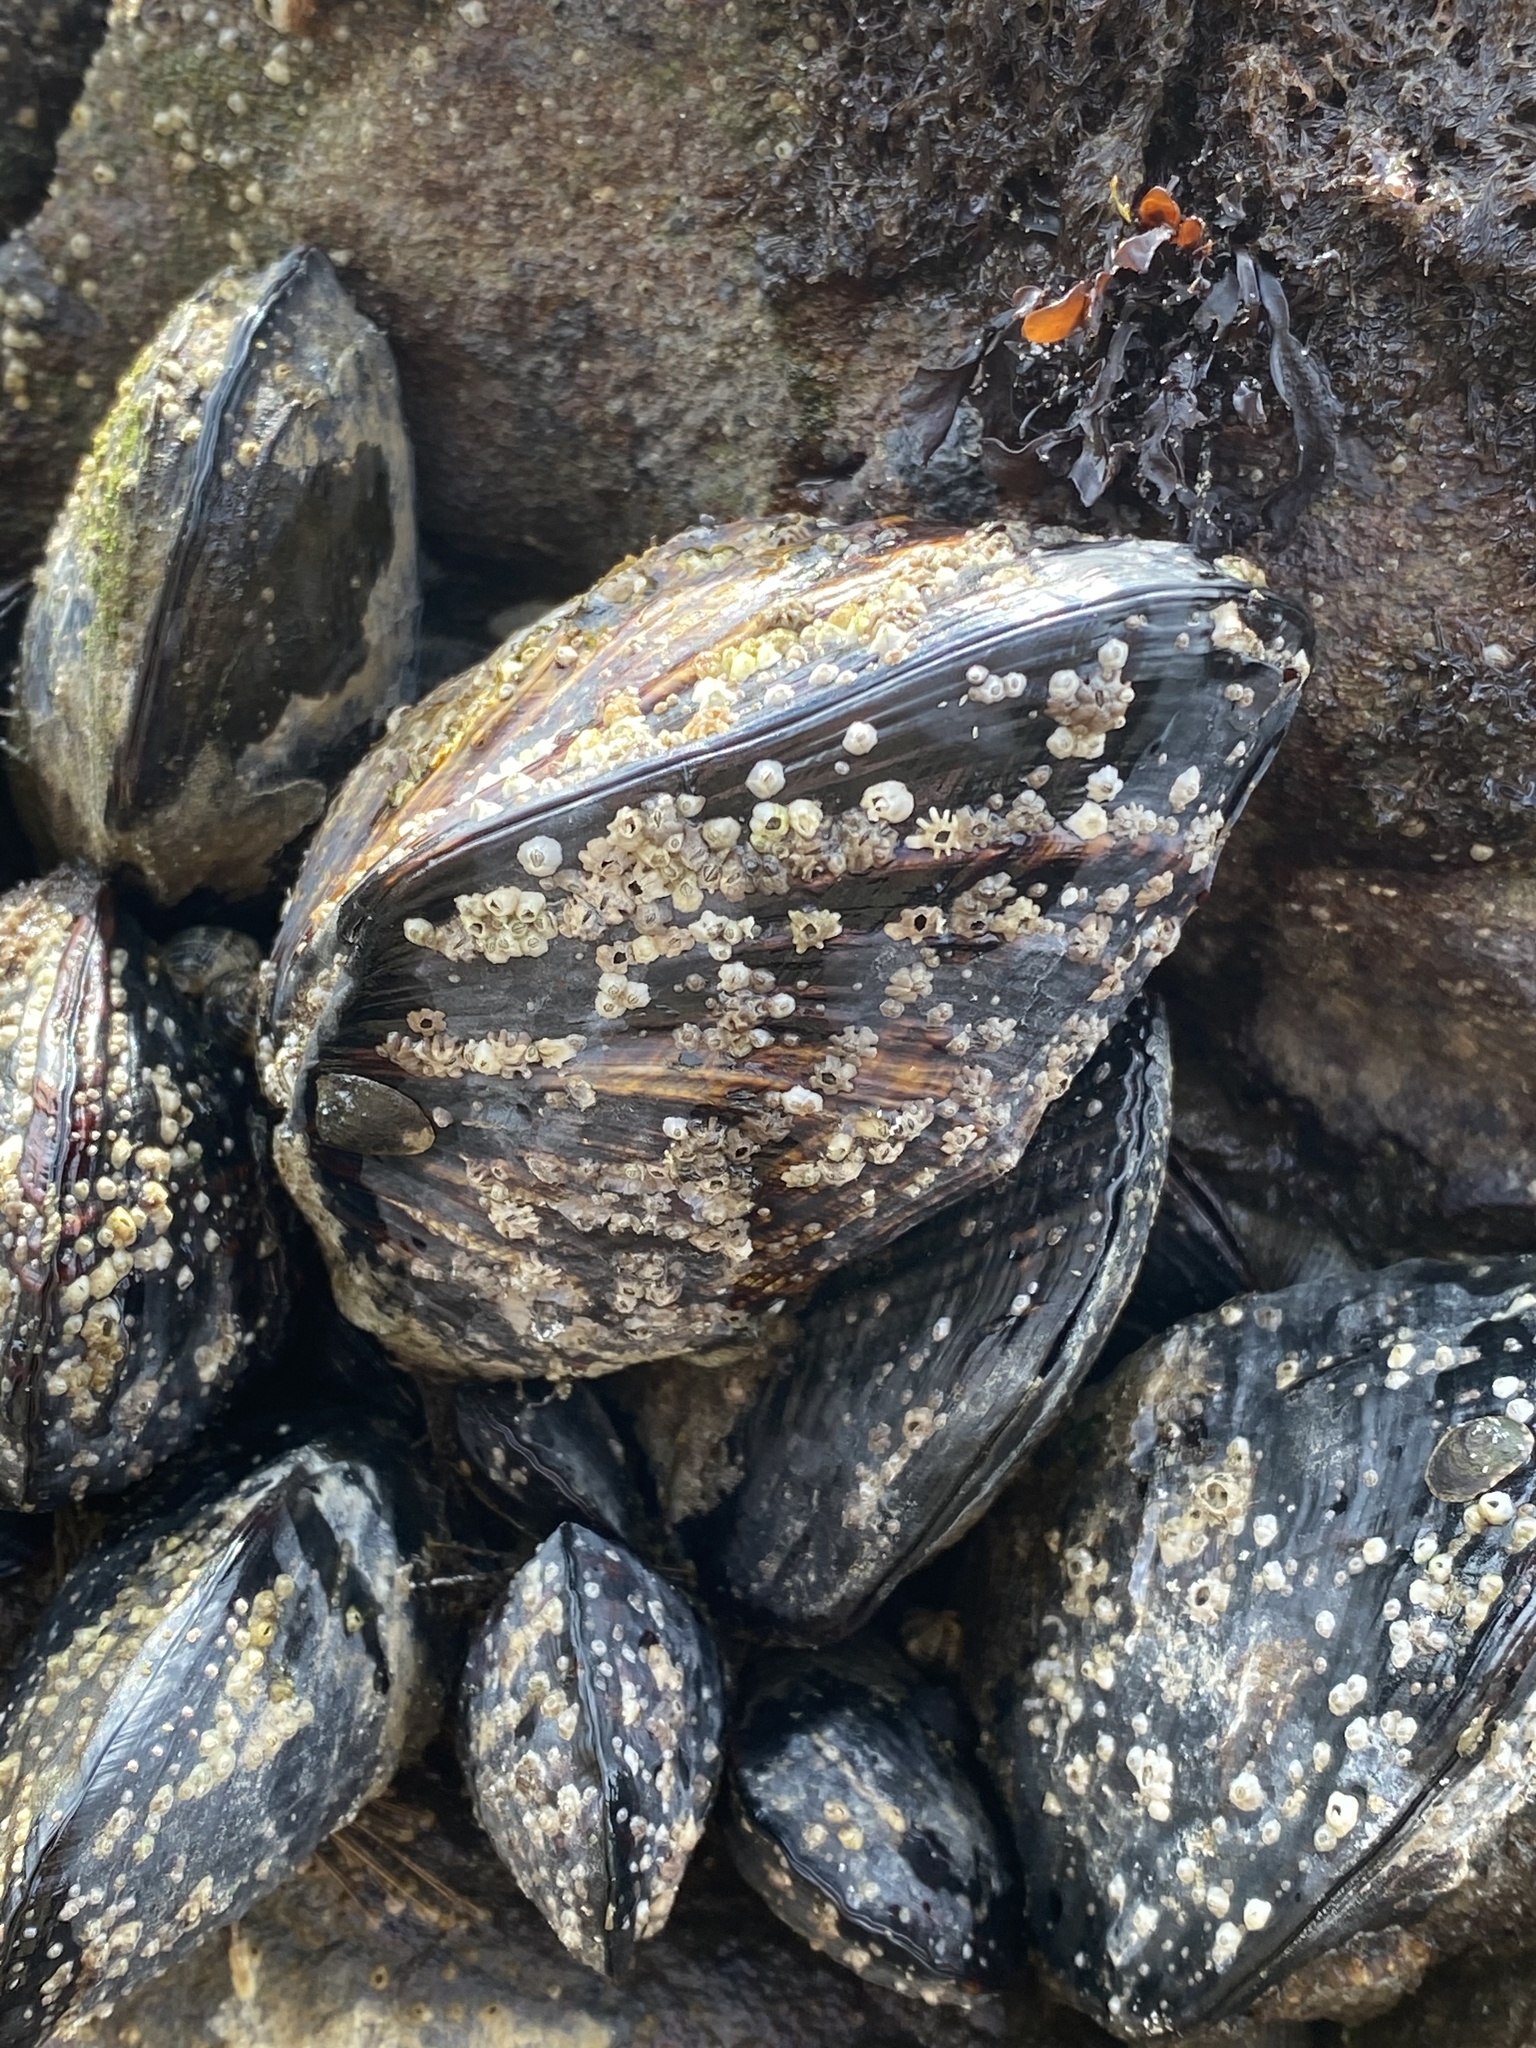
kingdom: Animalia
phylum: Mollusca
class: Bivalvia
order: Mytilida
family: Mytilidae
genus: Mytilus
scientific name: Mytilus californianus
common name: California mussel
